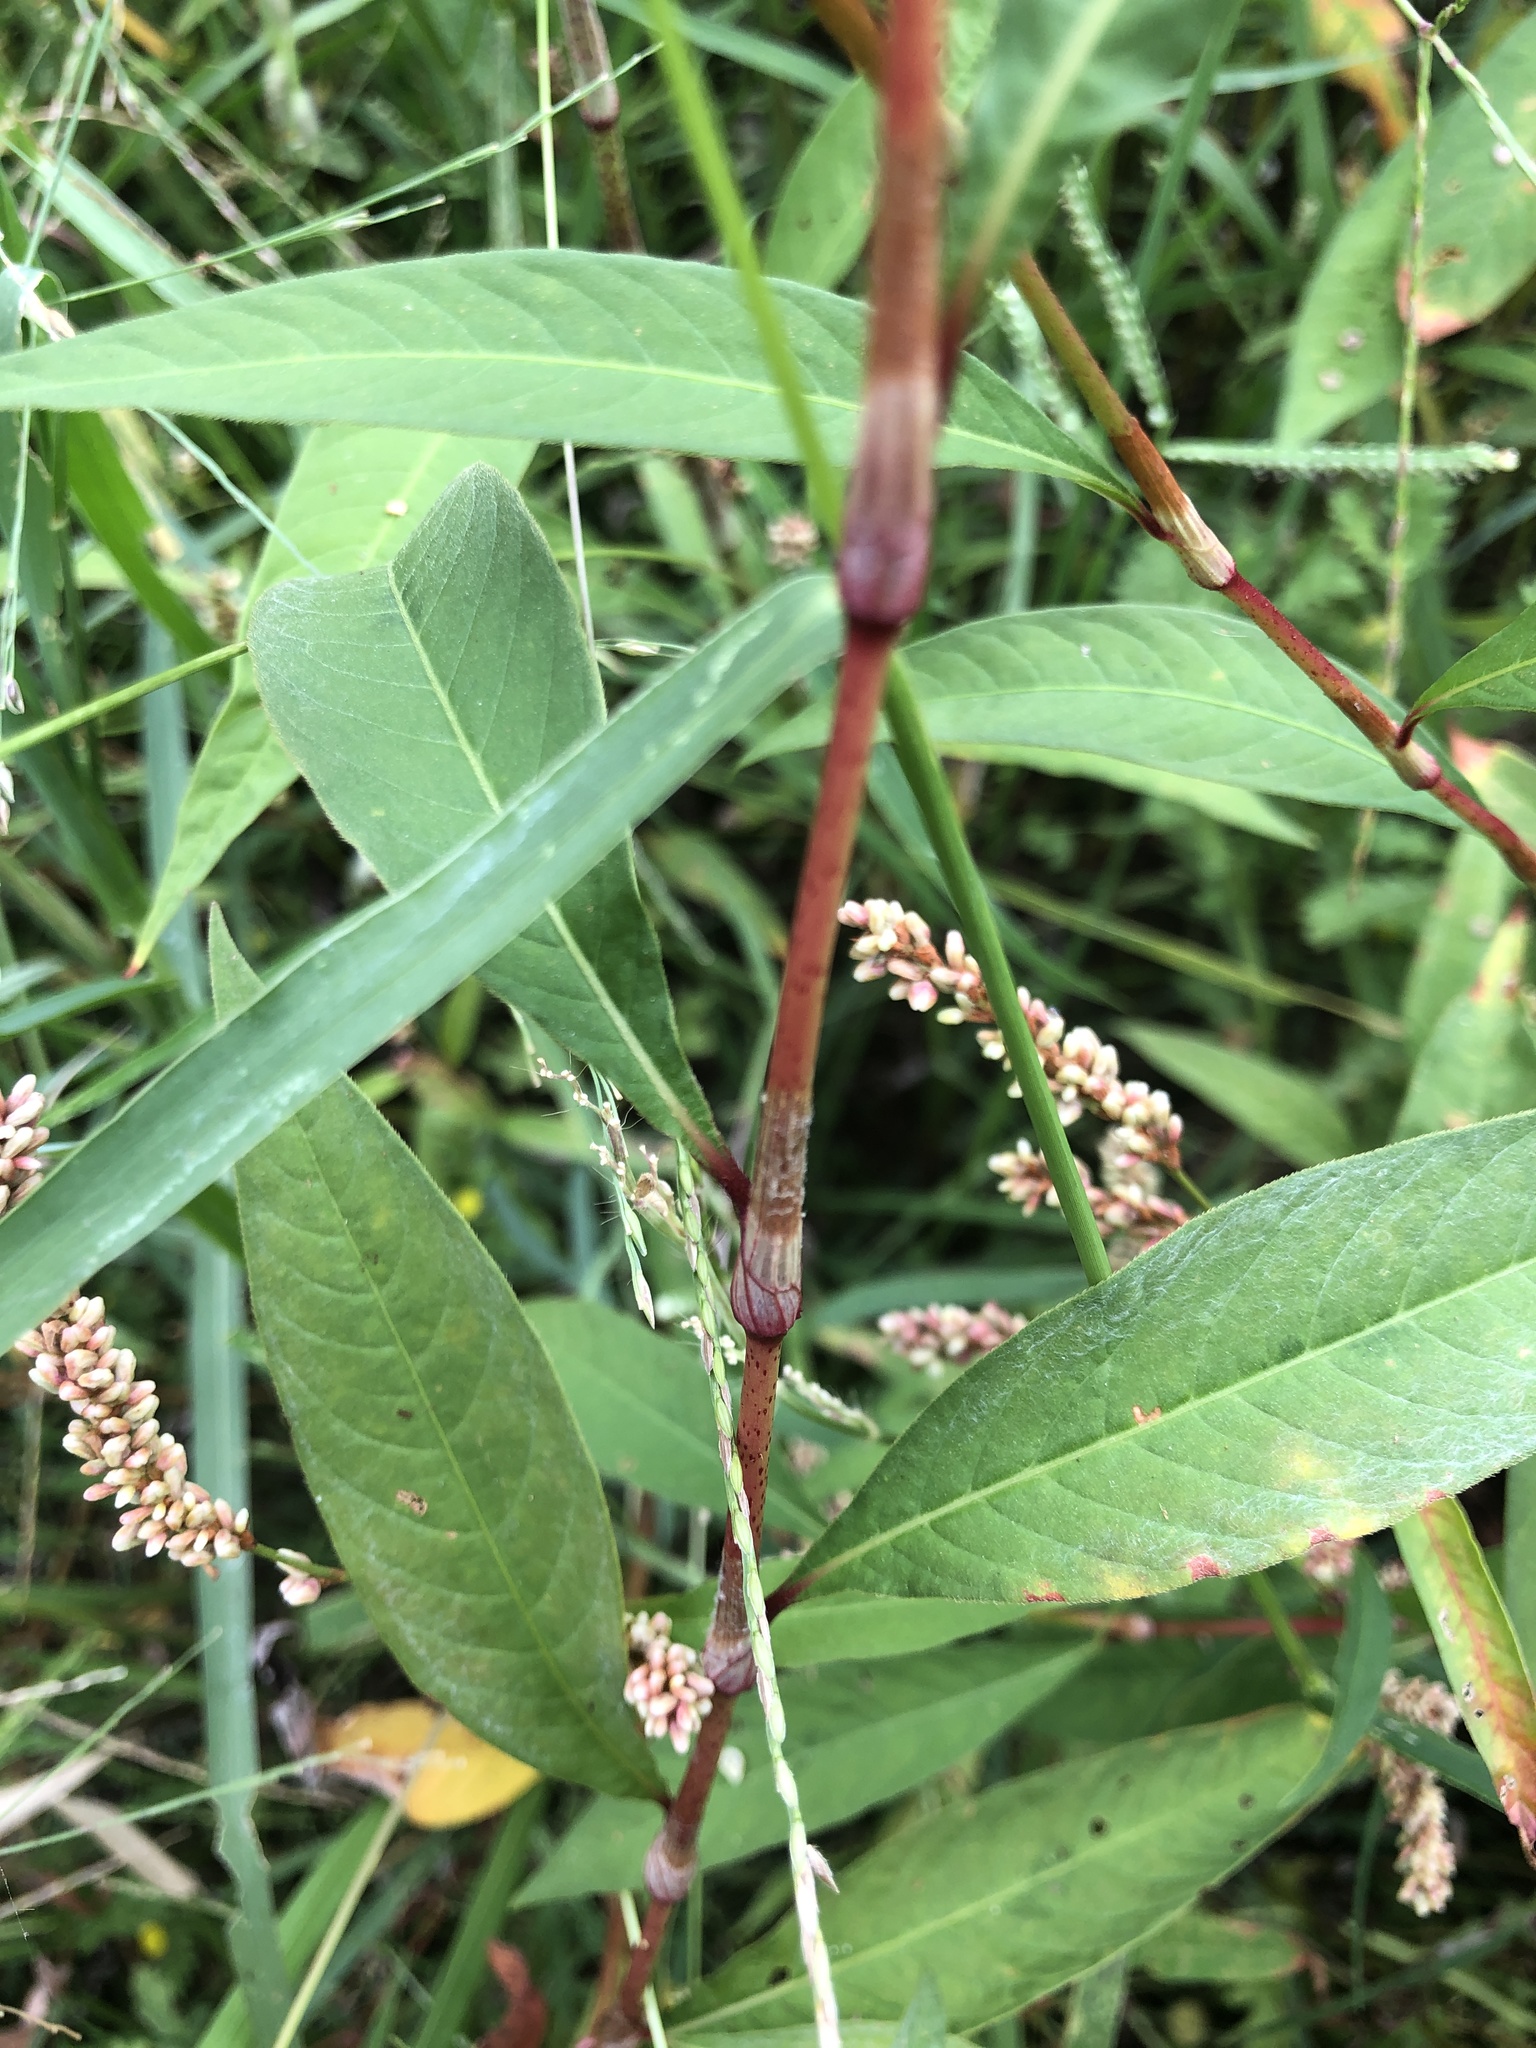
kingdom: Plantae
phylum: Tracheophyta
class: Magnoliopsida
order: Caryophyllales
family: Polygonaceae
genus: Persicaria
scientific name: Persicaria glabra
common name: Denseflower knotweed
